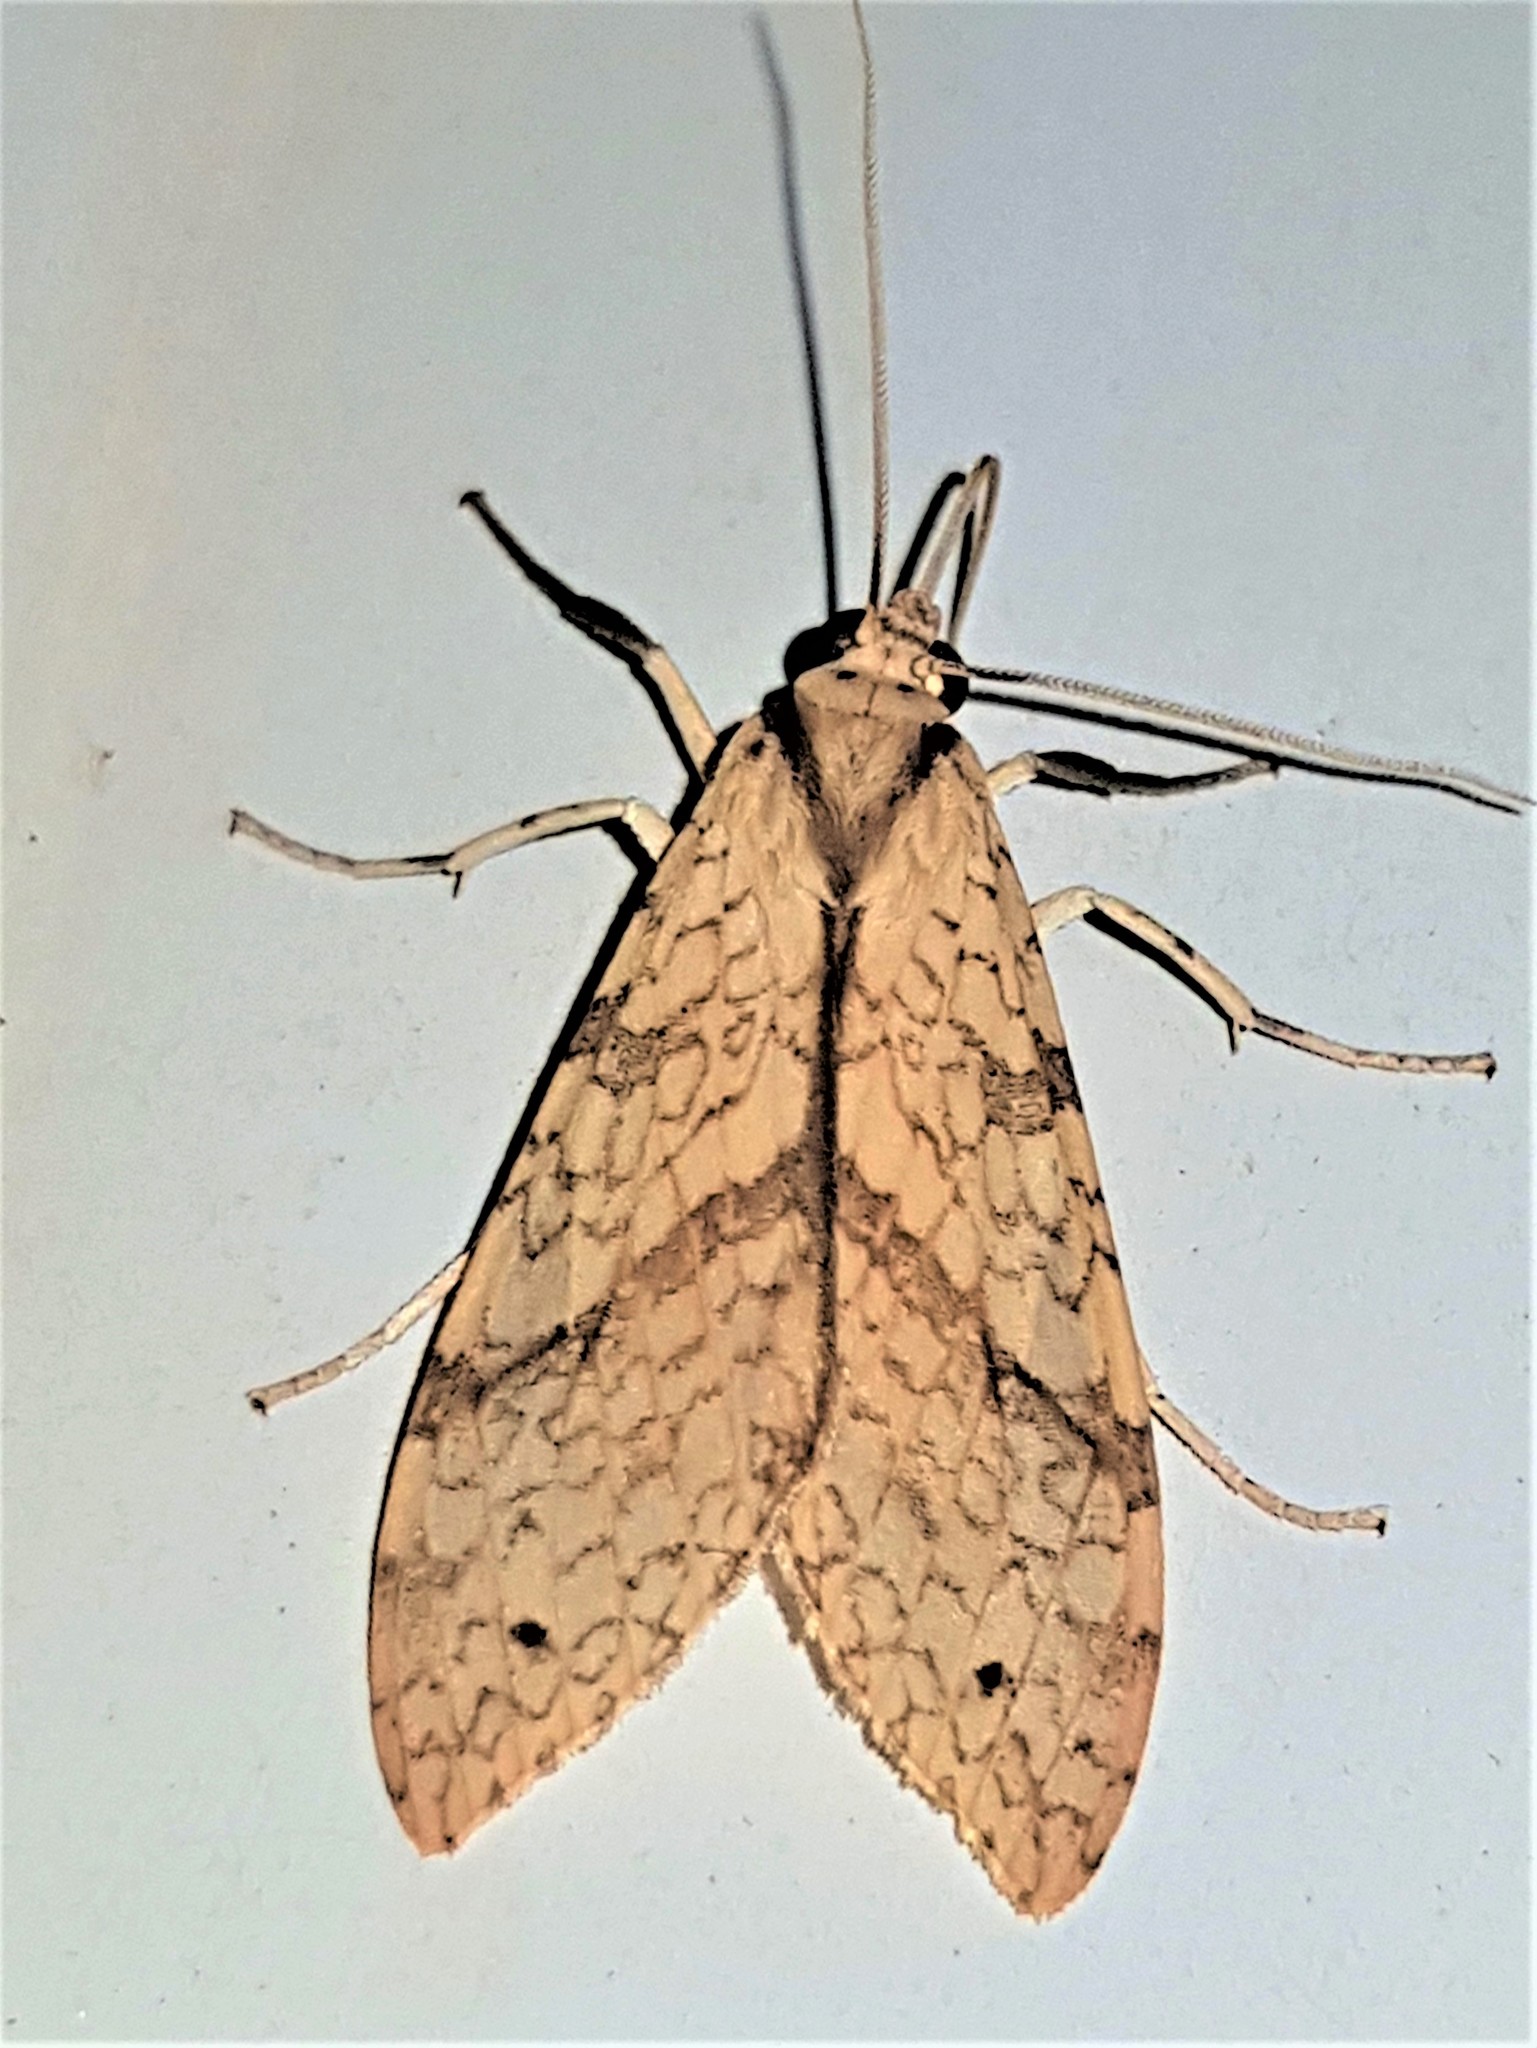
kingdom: Animalia
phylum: Arthropoda
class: Insecta
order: Lepidoptera
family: Erebidae
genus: Lophocampa
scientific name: Lophocampa seruba
